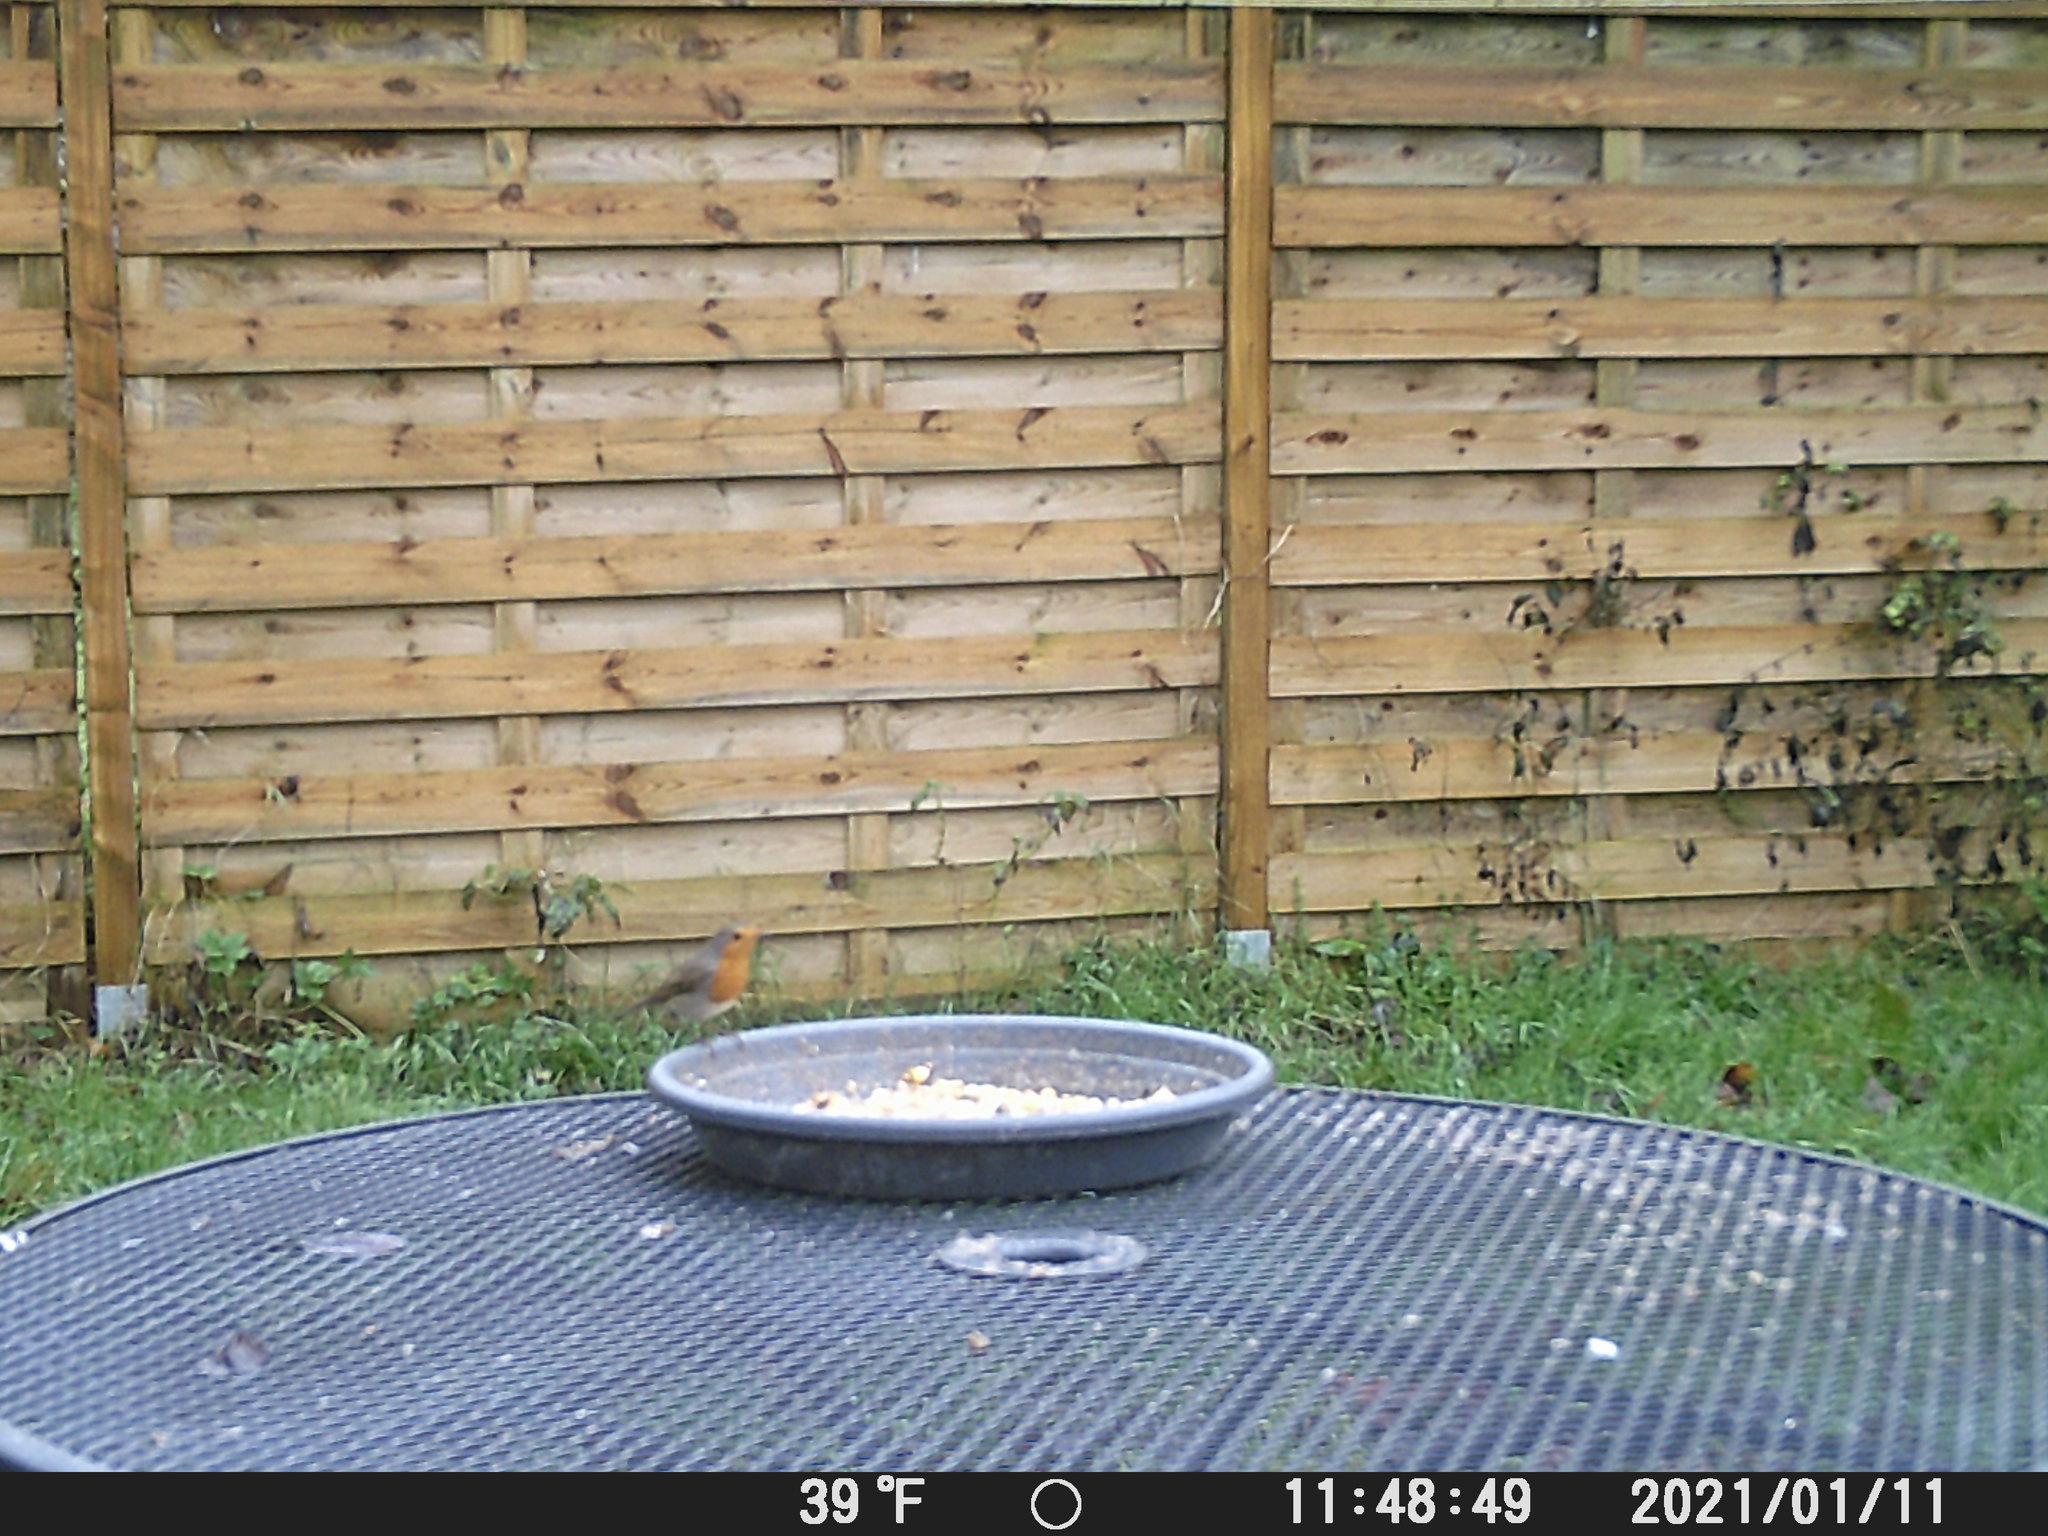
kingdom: Animalia
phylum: Chordata
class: Aves
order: Passeriformes
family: Muscicapidae
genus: Erithacus
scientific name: Erithacus rubecula
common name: European robin
